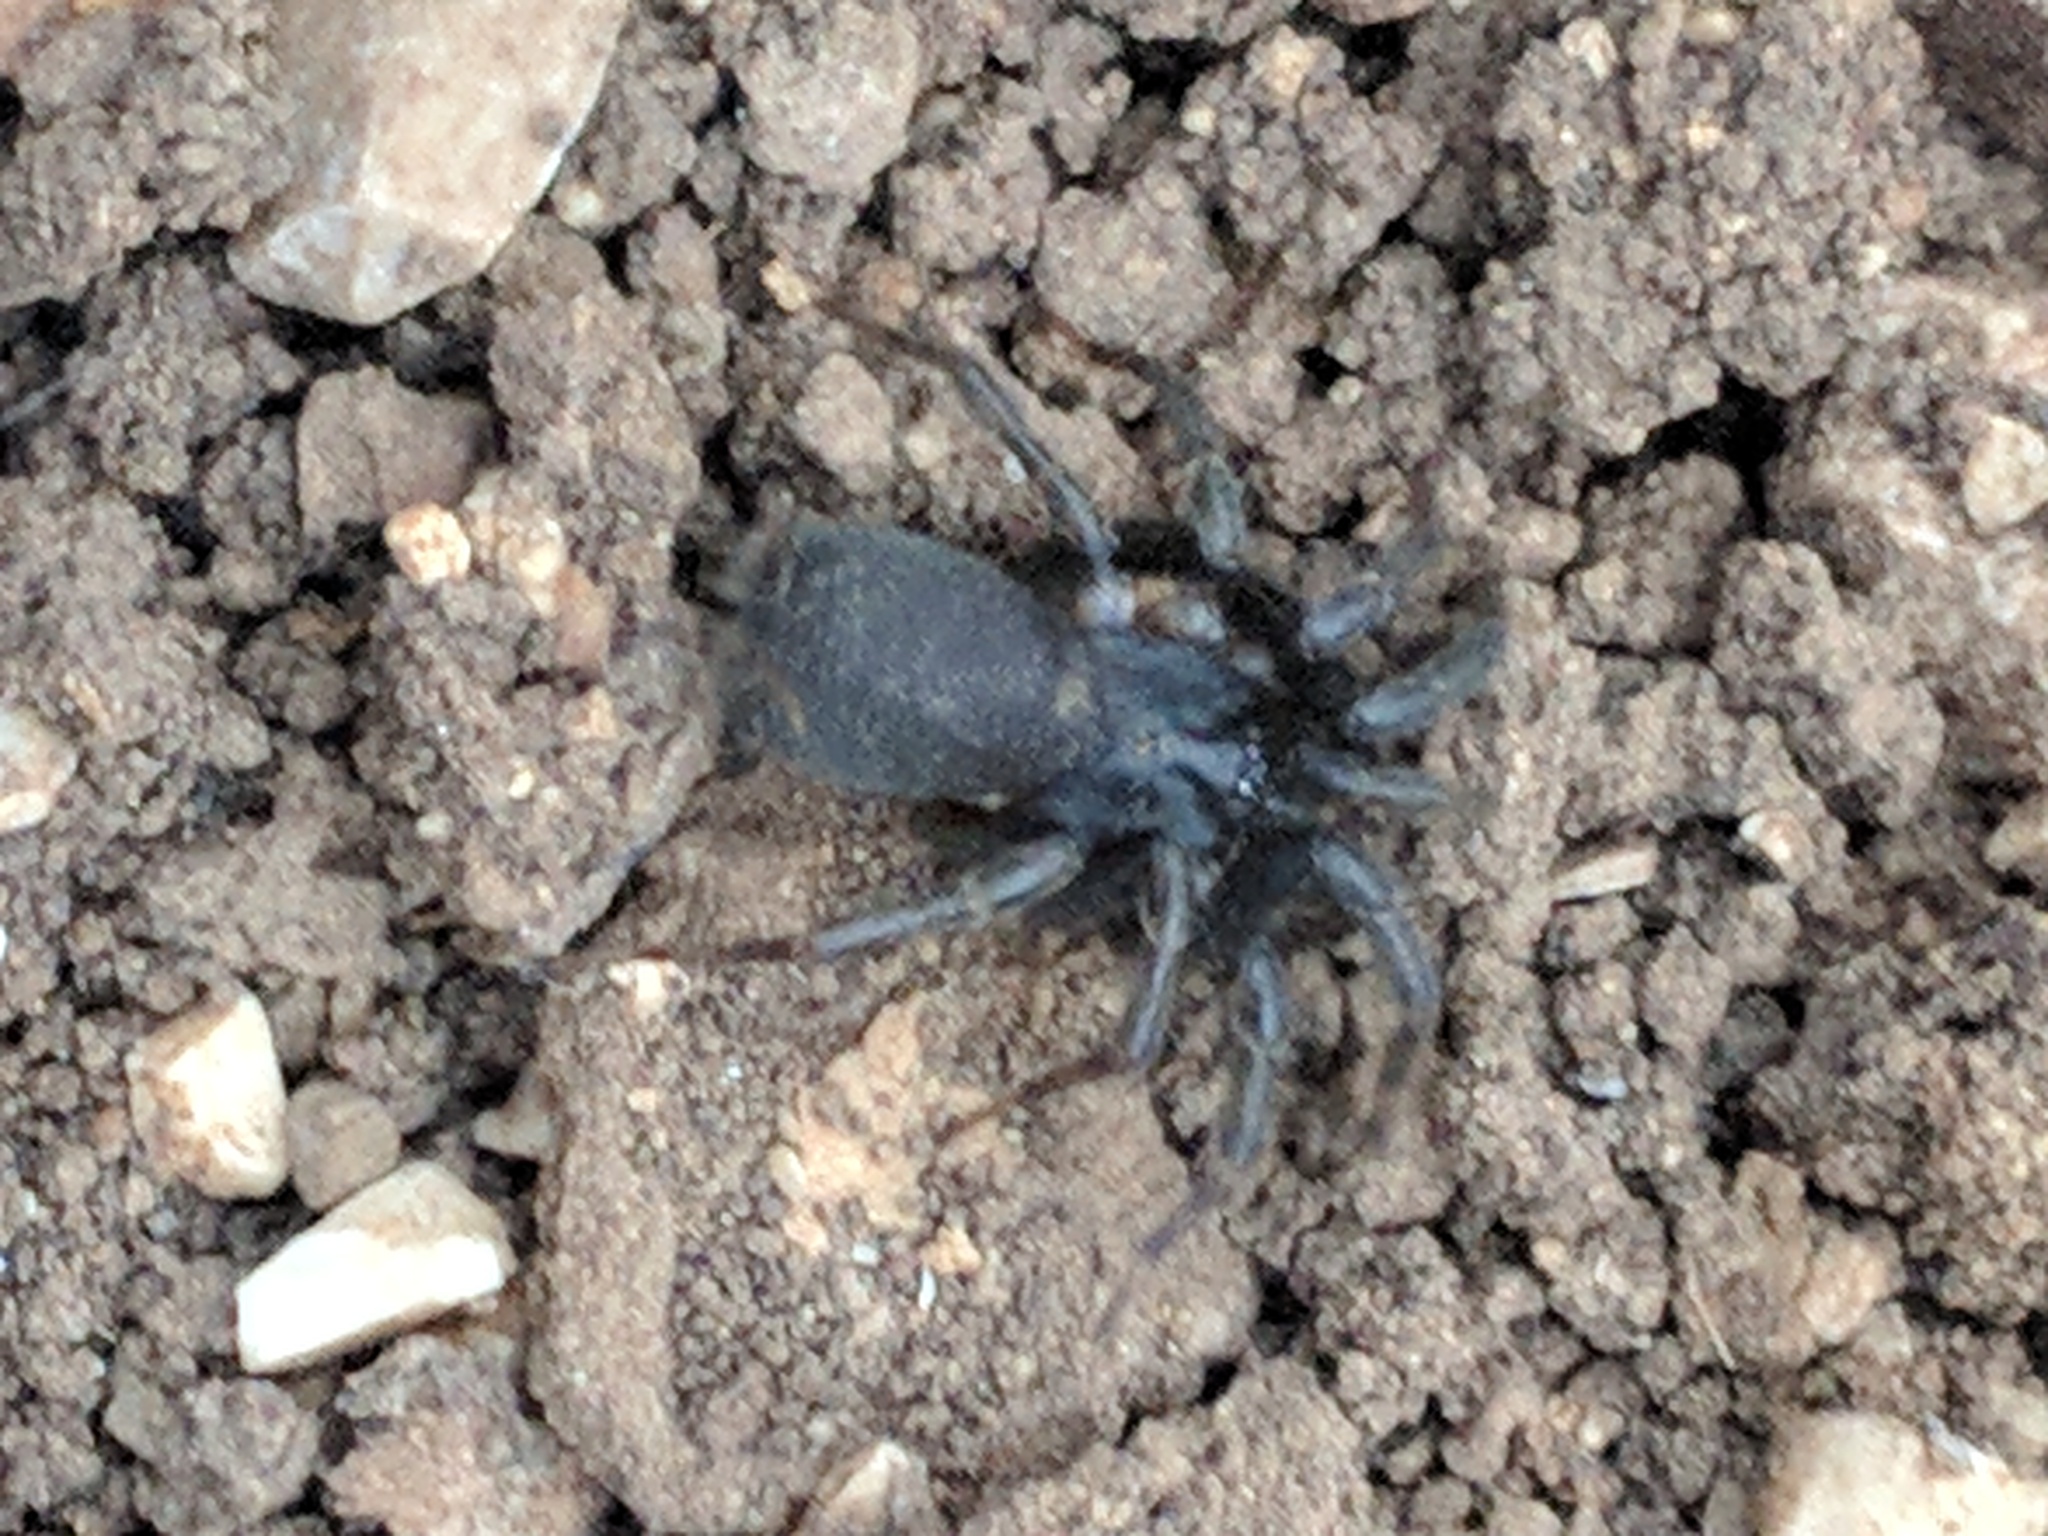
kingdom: Animalia
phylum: Arthropoda
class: Arachnida
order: Araneae
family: Ischnothelidae
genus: Ischnothele
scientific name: Ischnothele caudata
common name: Funnelweb spiders
